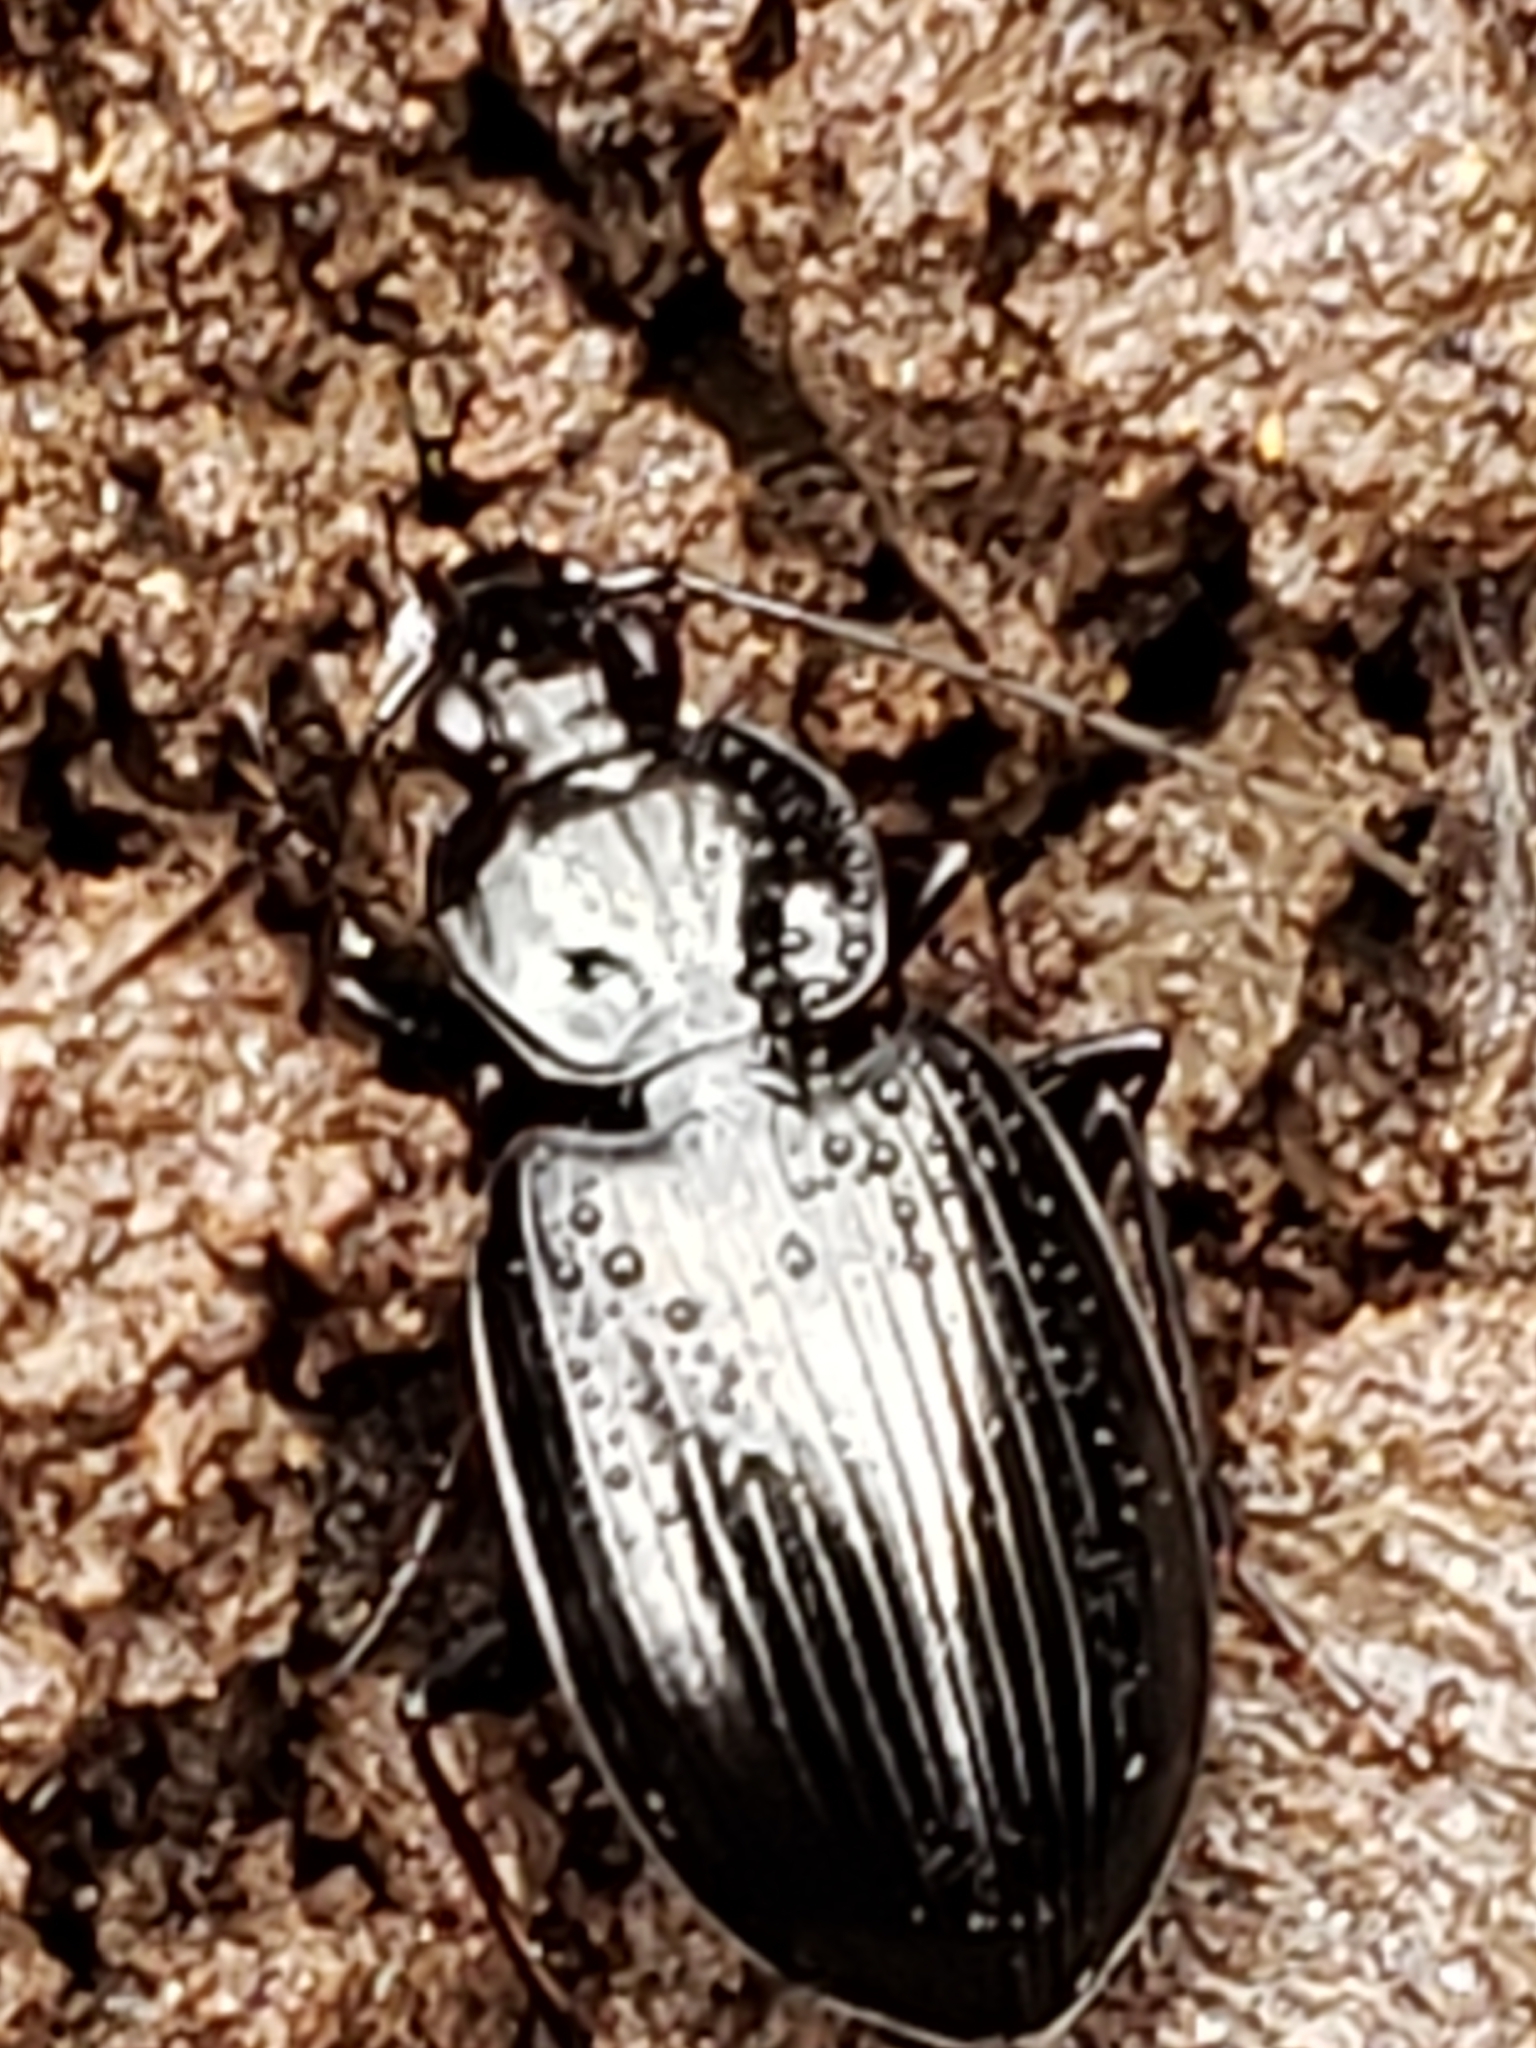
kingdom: Animalia
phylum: Arthropoda
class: Insecta
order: Coleoptera
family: Carabidae
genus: Agonum
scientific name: Agonum moerens
